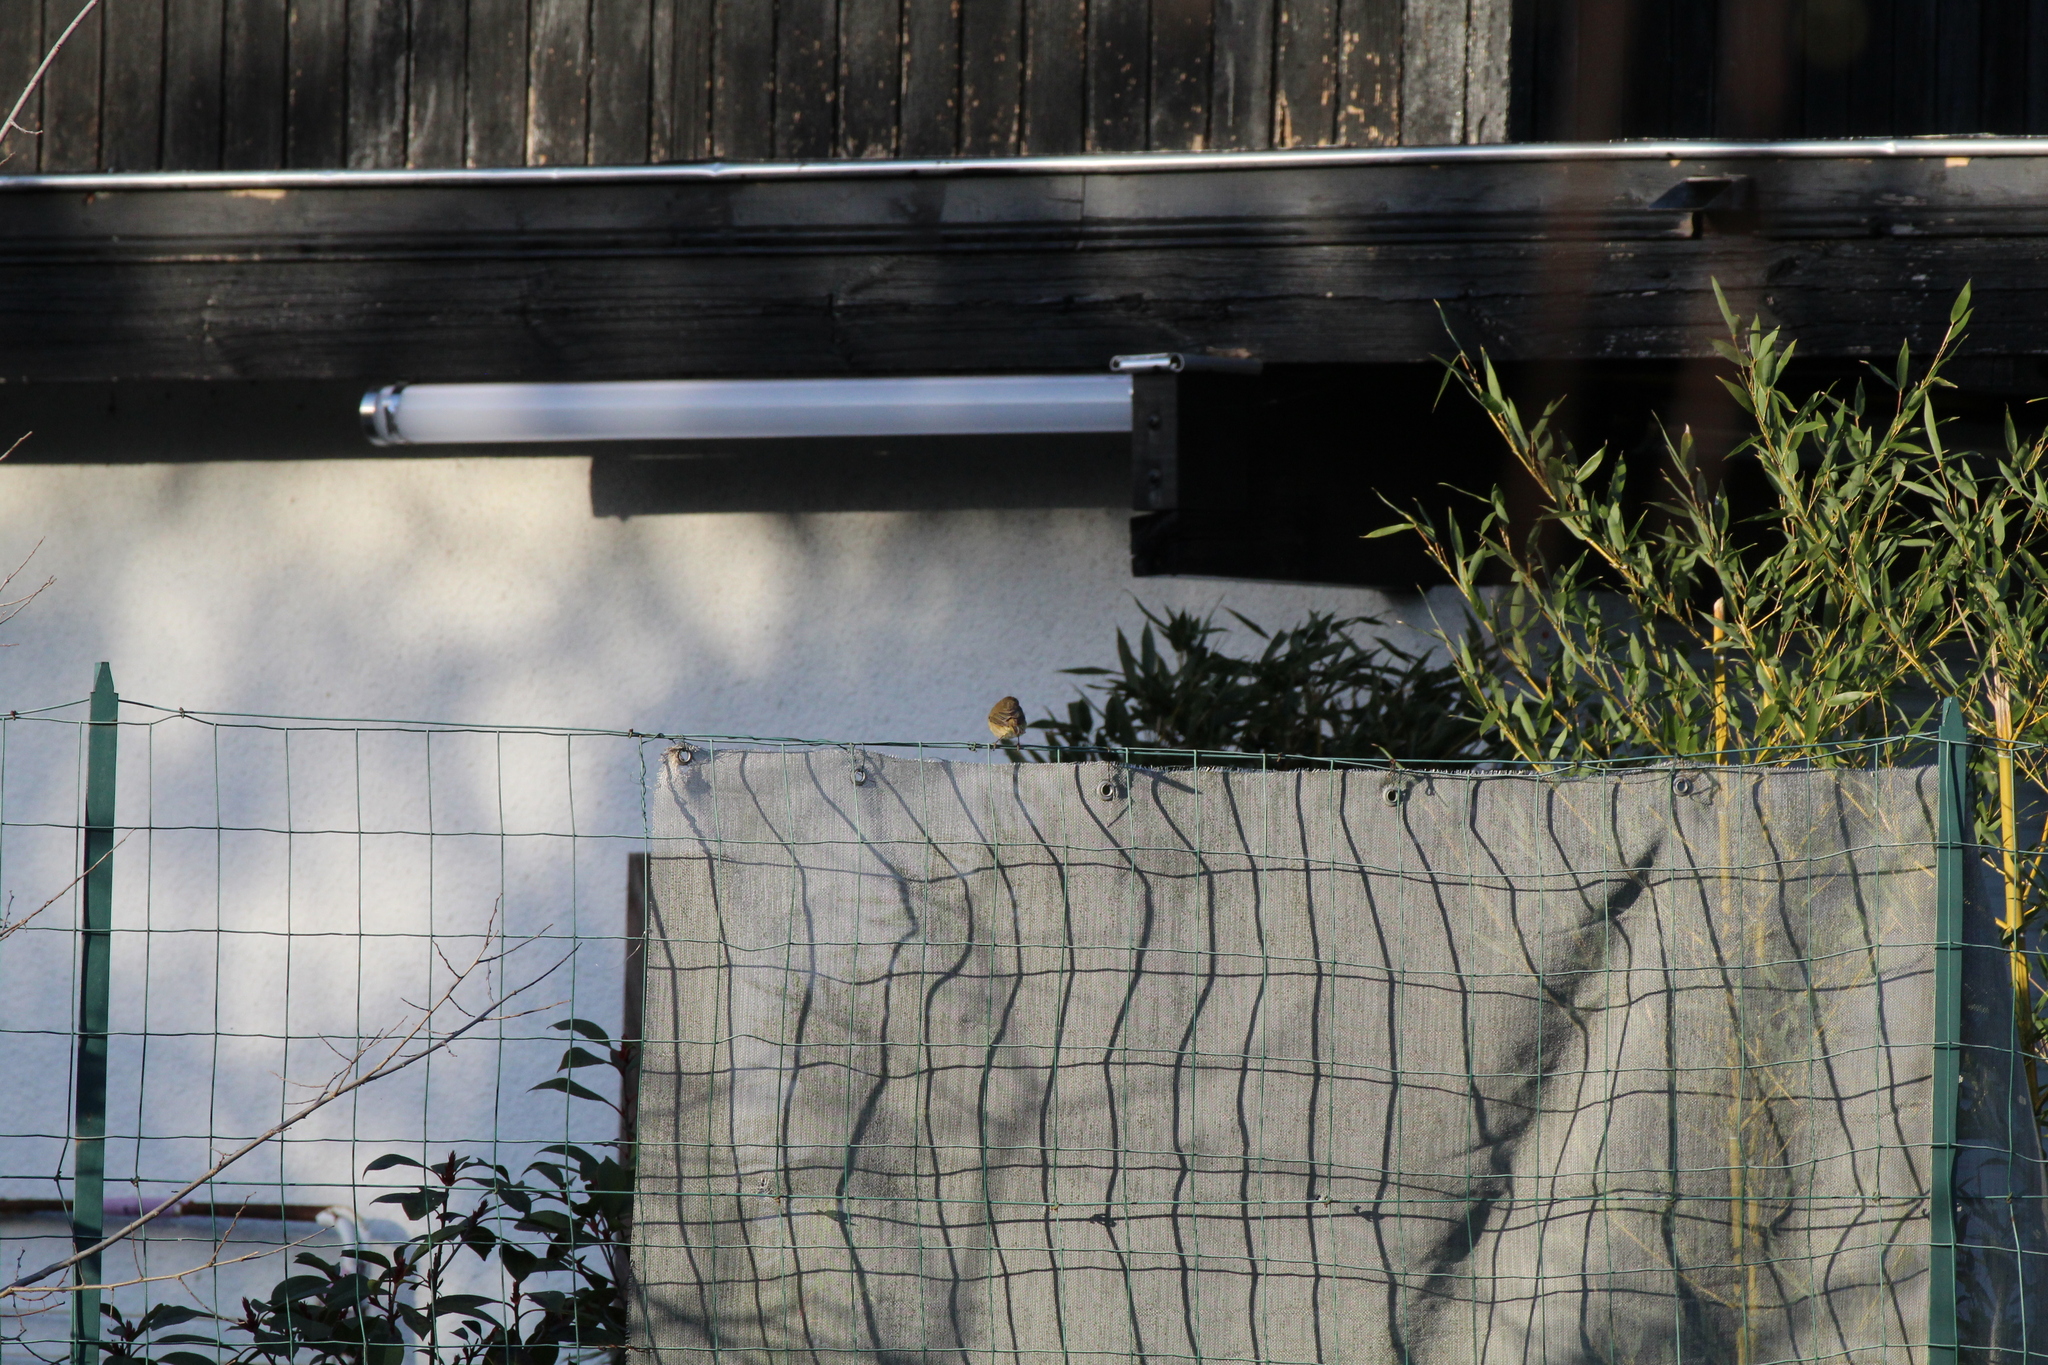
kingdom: Animalia
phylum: Chordata
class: Aves
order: Passeriformes
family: Phylloscopidae
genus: Phylloscopus
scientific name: Phylloscopus collybita
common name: Common chiffchaff
